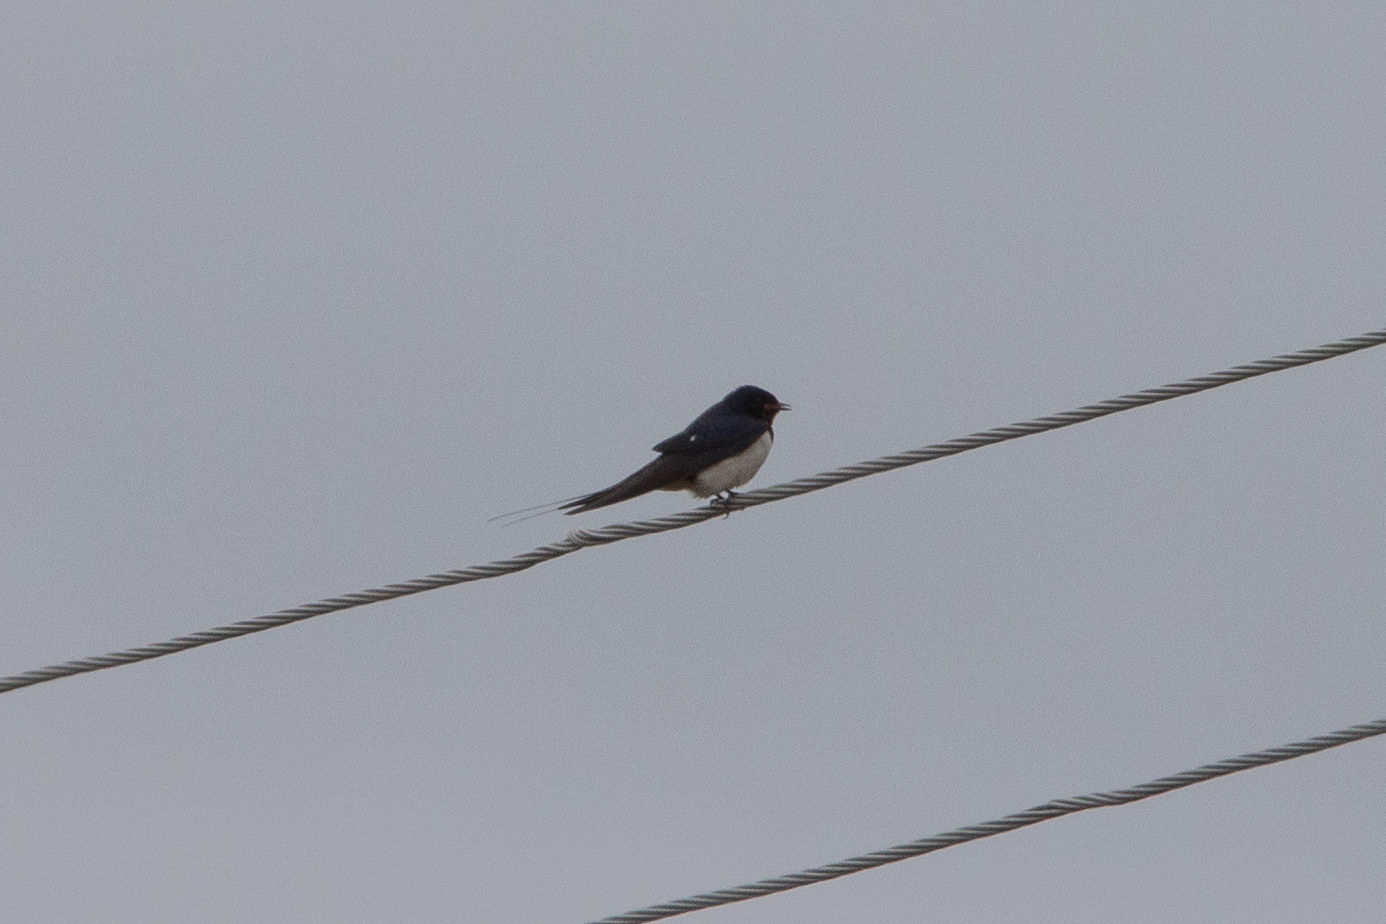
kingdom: Animalia
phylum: Chordata
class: Aves
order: Passeriformes
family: Hirundinidae
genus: Hirundo
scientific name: Hirundo rustica
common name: Barn swallow
